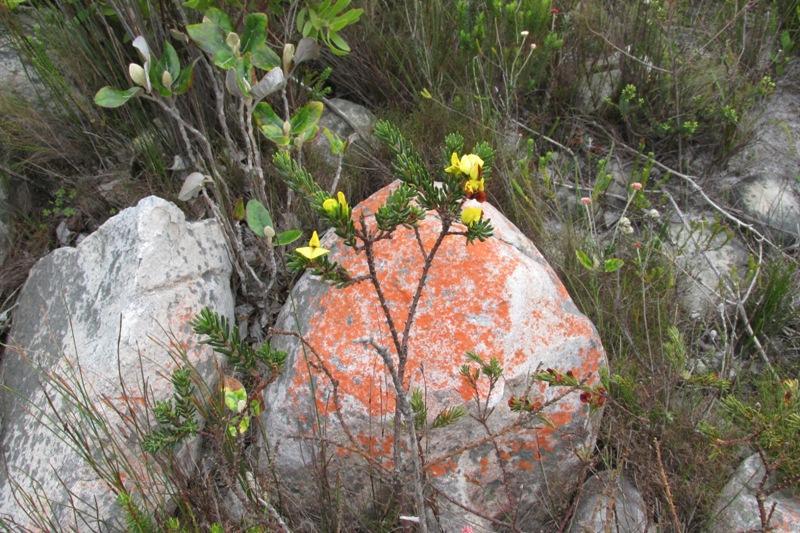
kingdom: Plantae
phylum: Tracheophyta
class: Magnoliopsida
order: Fabales
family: Fabaceae
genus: Cyclopia
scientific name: Cyclopia galioides
